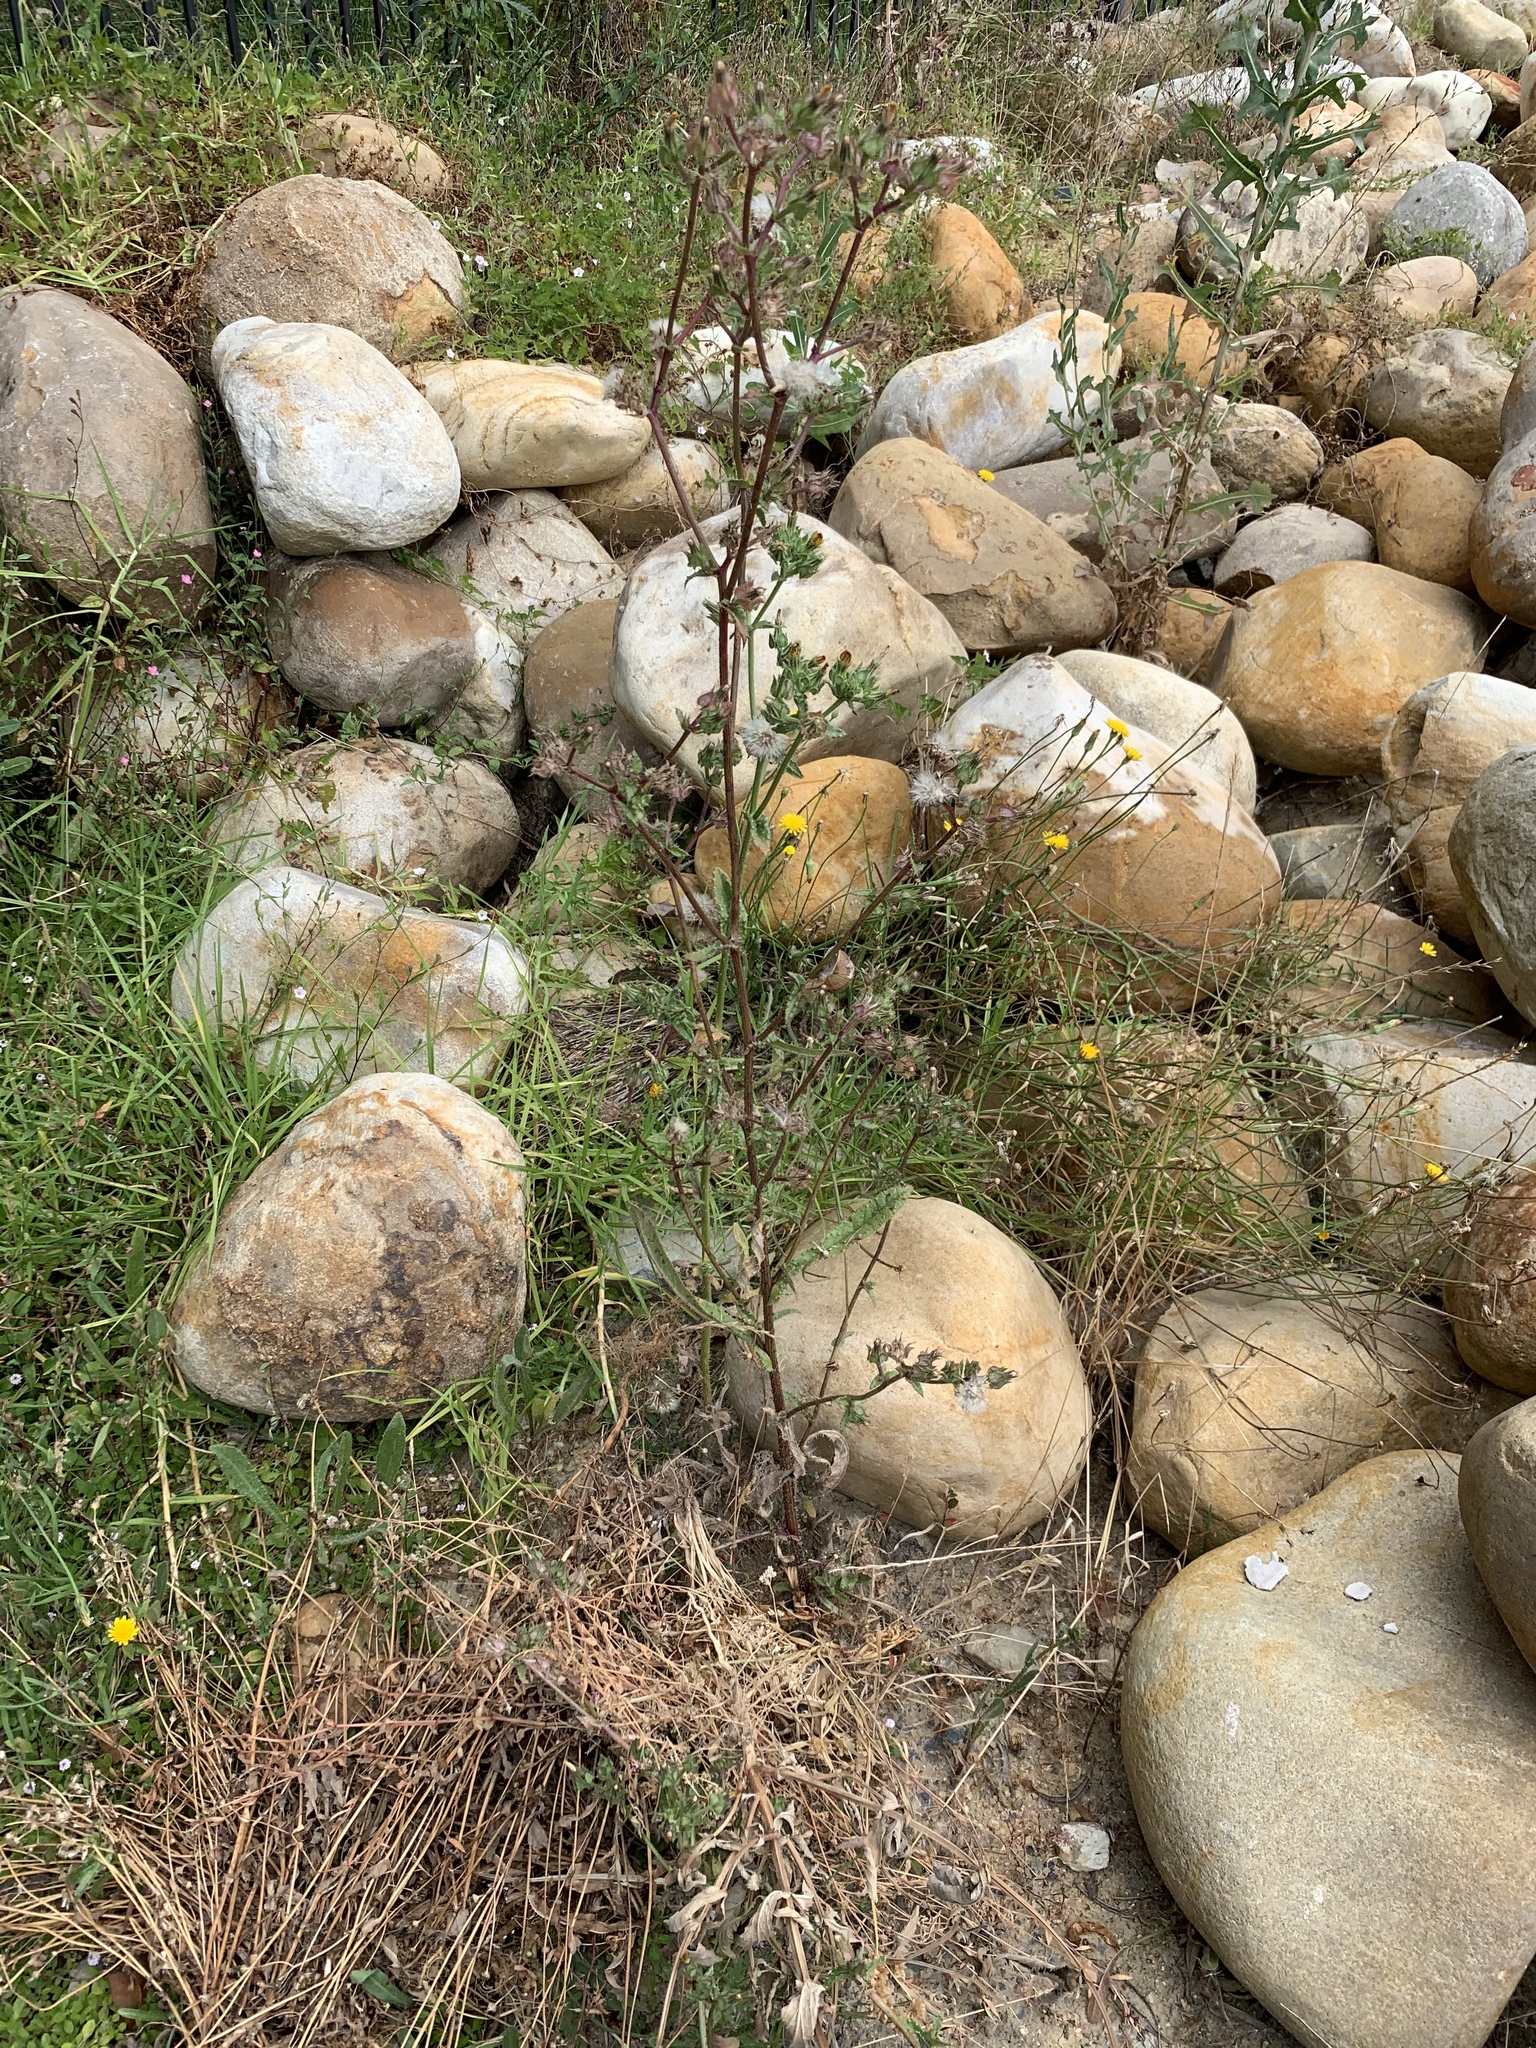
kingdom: Plantae
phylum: Tracheophyta
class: Magnoliopsida
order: Asterales
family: Asteraceae
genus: Helminthotheca
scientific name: Helminthotheca echioides
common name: Ox-tongue
